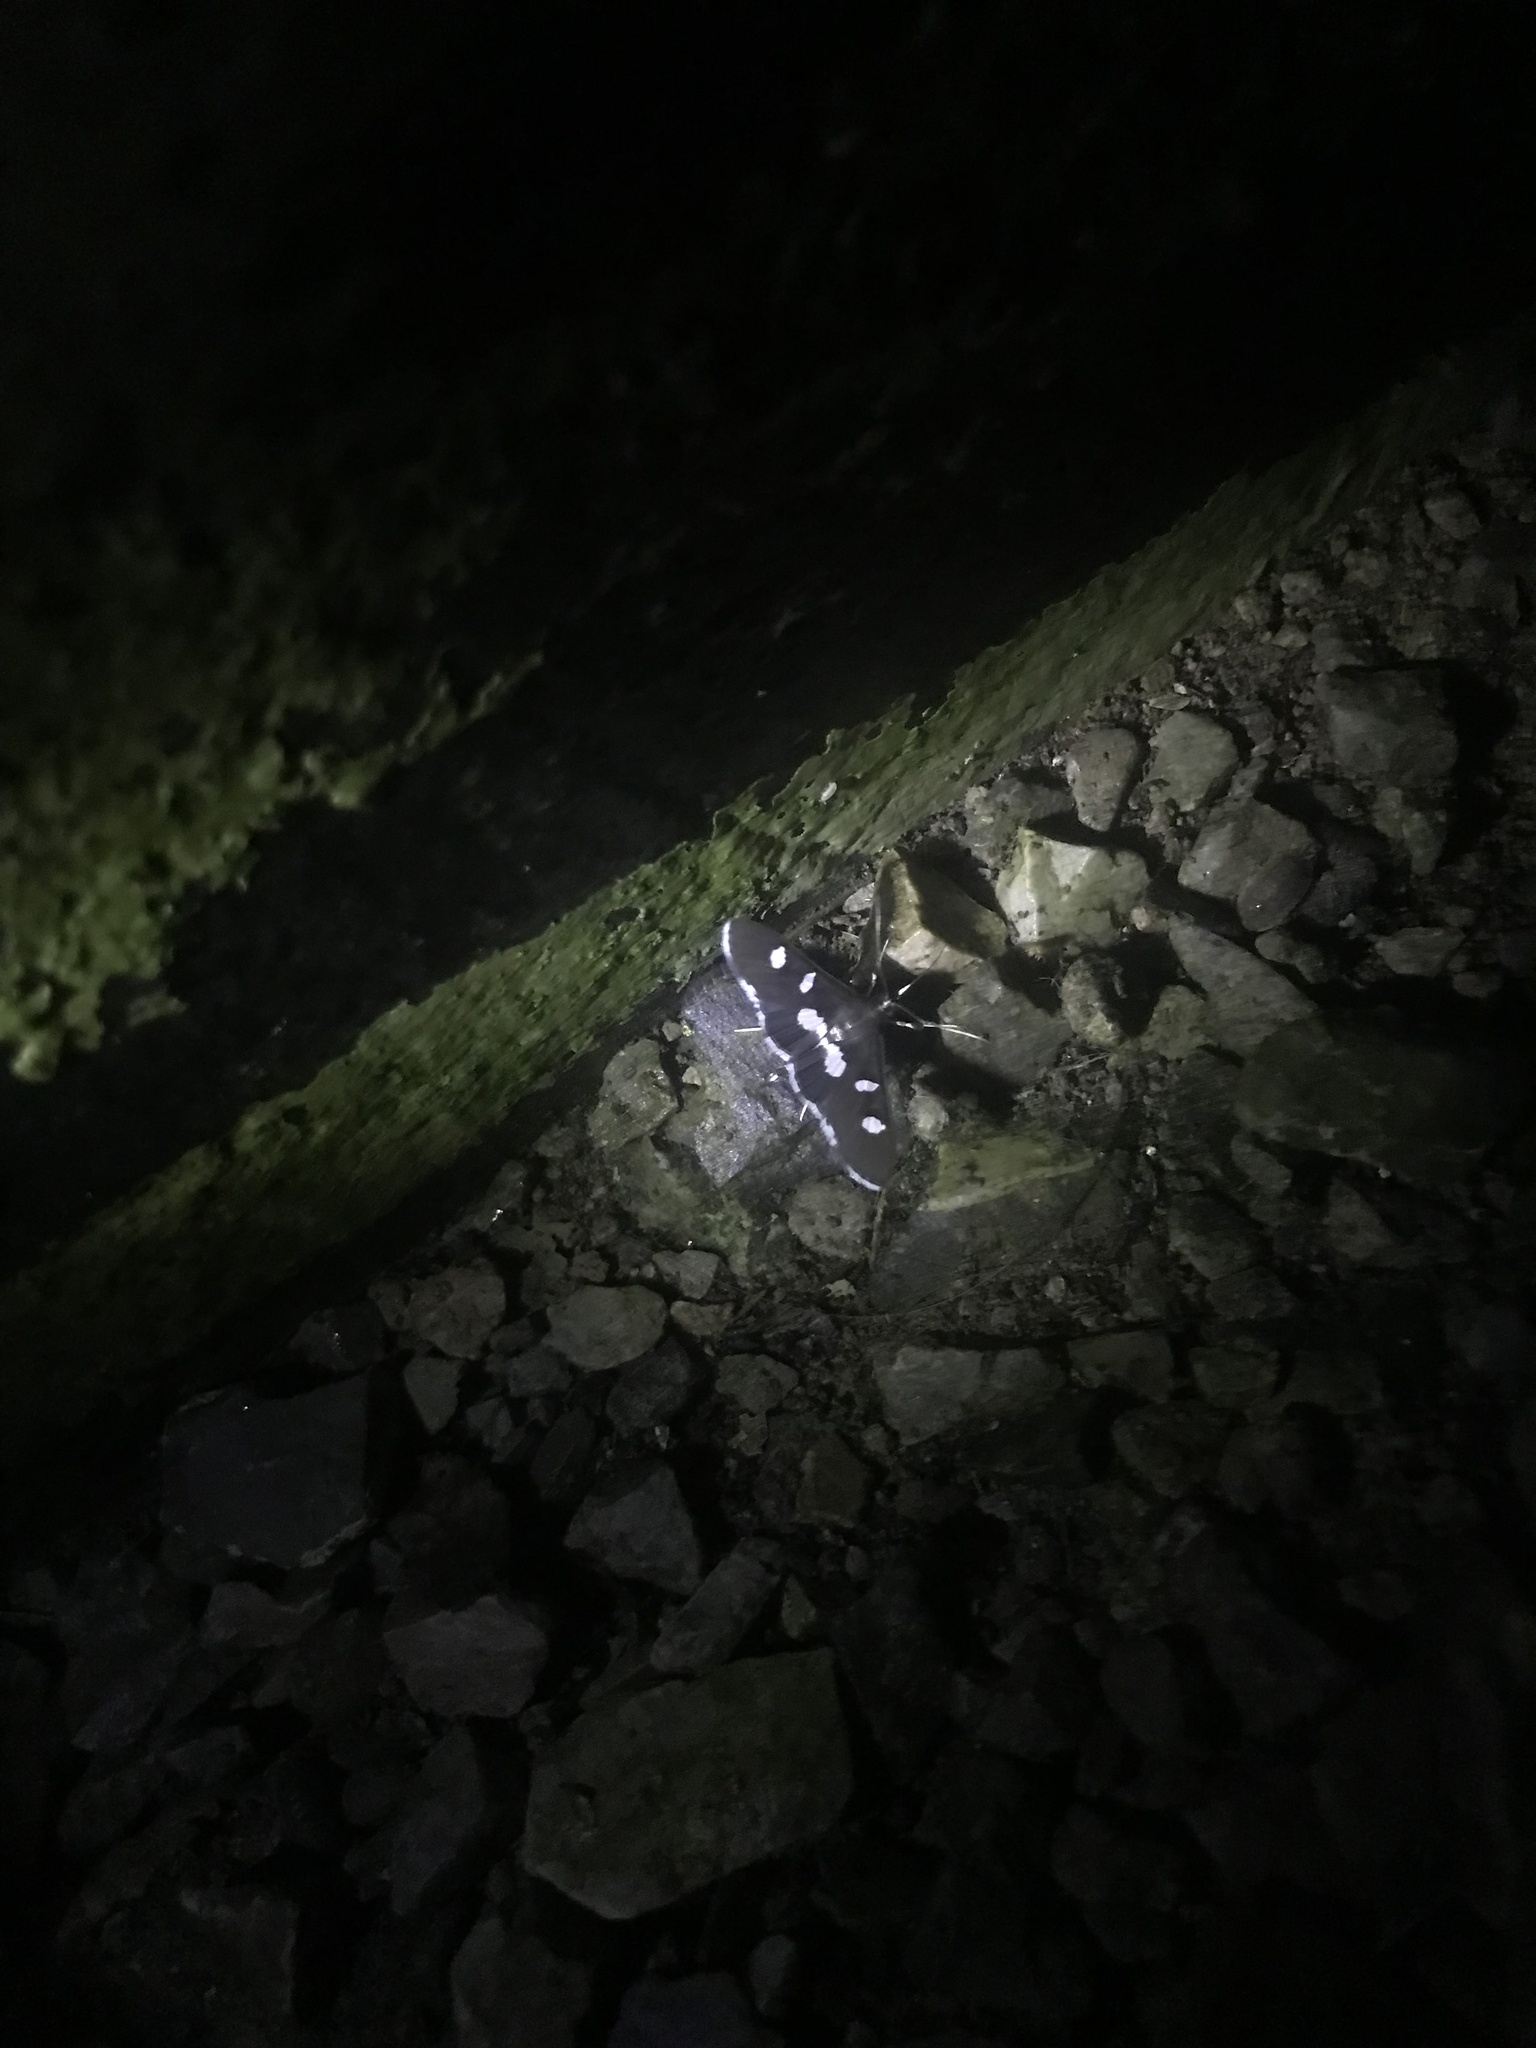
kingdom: Animalia
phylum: Arthropoda
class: Insecta
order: Lepidoptera
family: Crambidae
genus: Desmia
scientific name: Desmia funeralis
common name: Grape leaf folder moth
